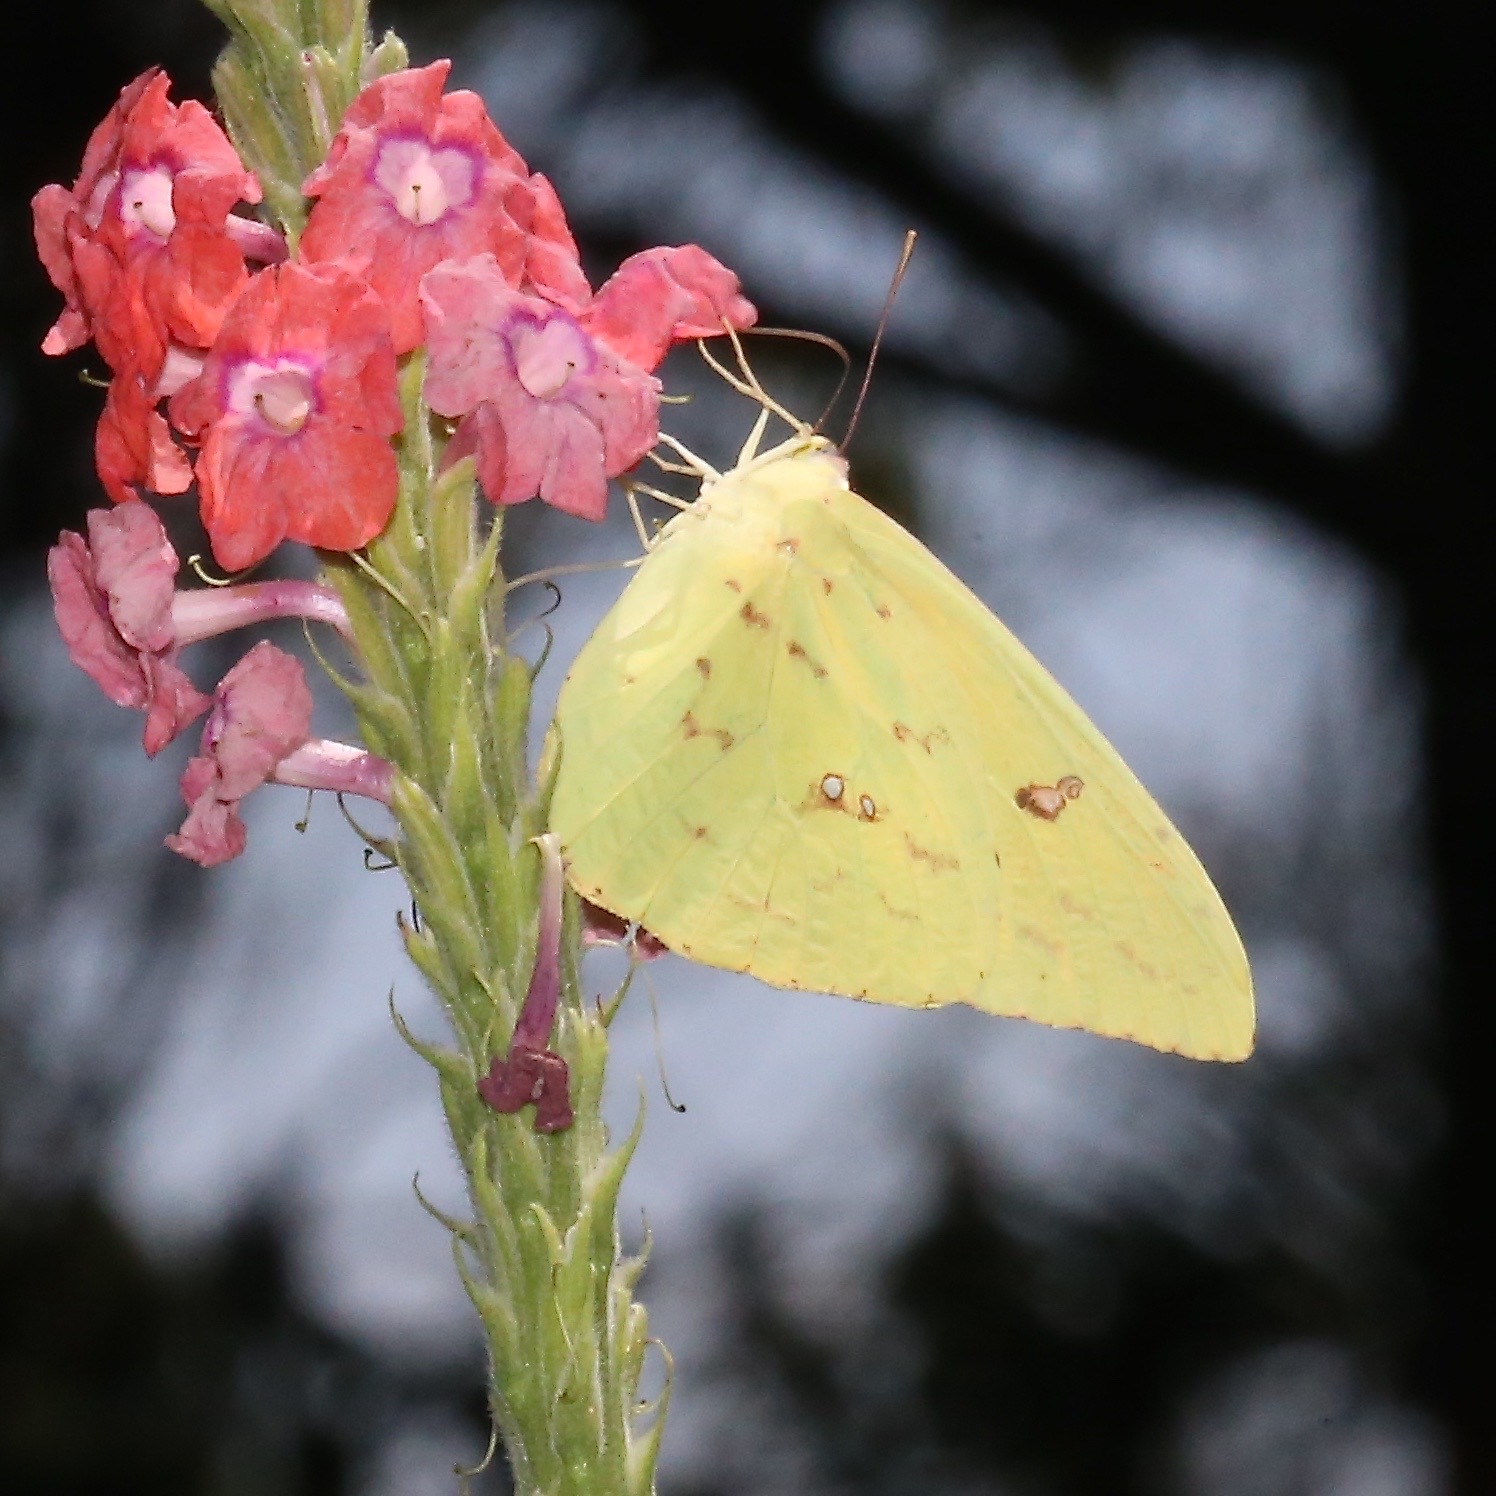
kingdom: Animalia
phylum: Arthropoda
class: Insecta
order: Lepidoptera
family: Pieridae
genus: Phoebis
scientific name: Phoebis sennae
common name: Cloudless sulphur
